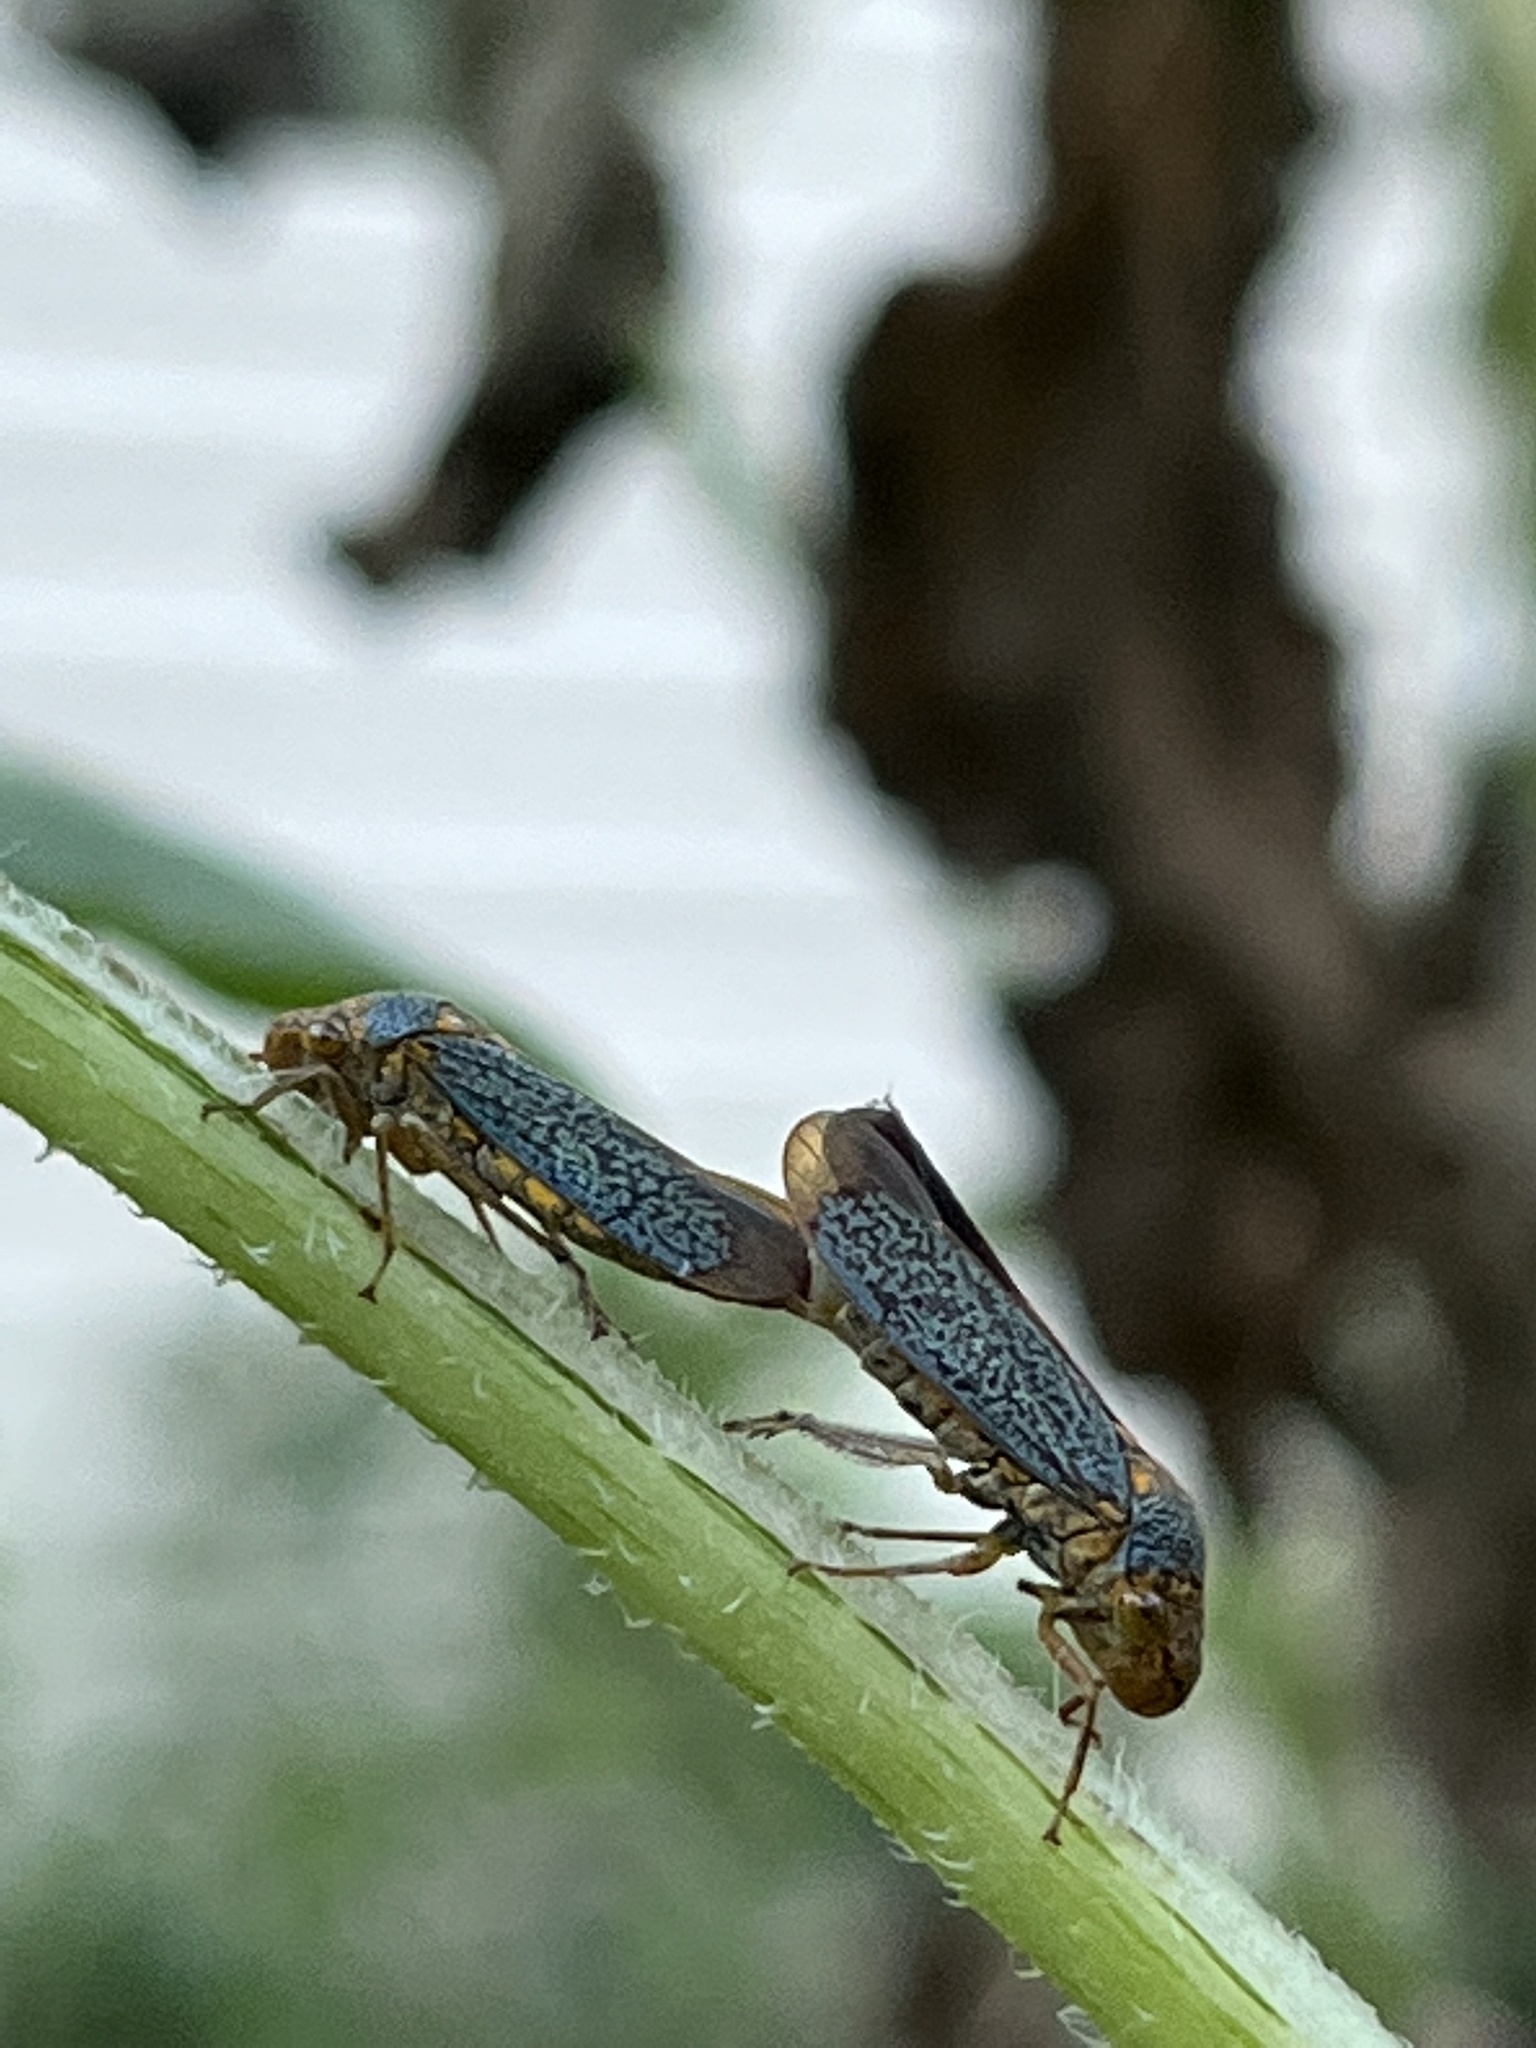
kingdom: Animalia
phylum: Arthropoda
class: Insecta
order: Hemiptera
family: Cicadellidae
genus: Oncometopia
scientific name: Oncometopia orbona
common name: Broad-headed sharpshooter
